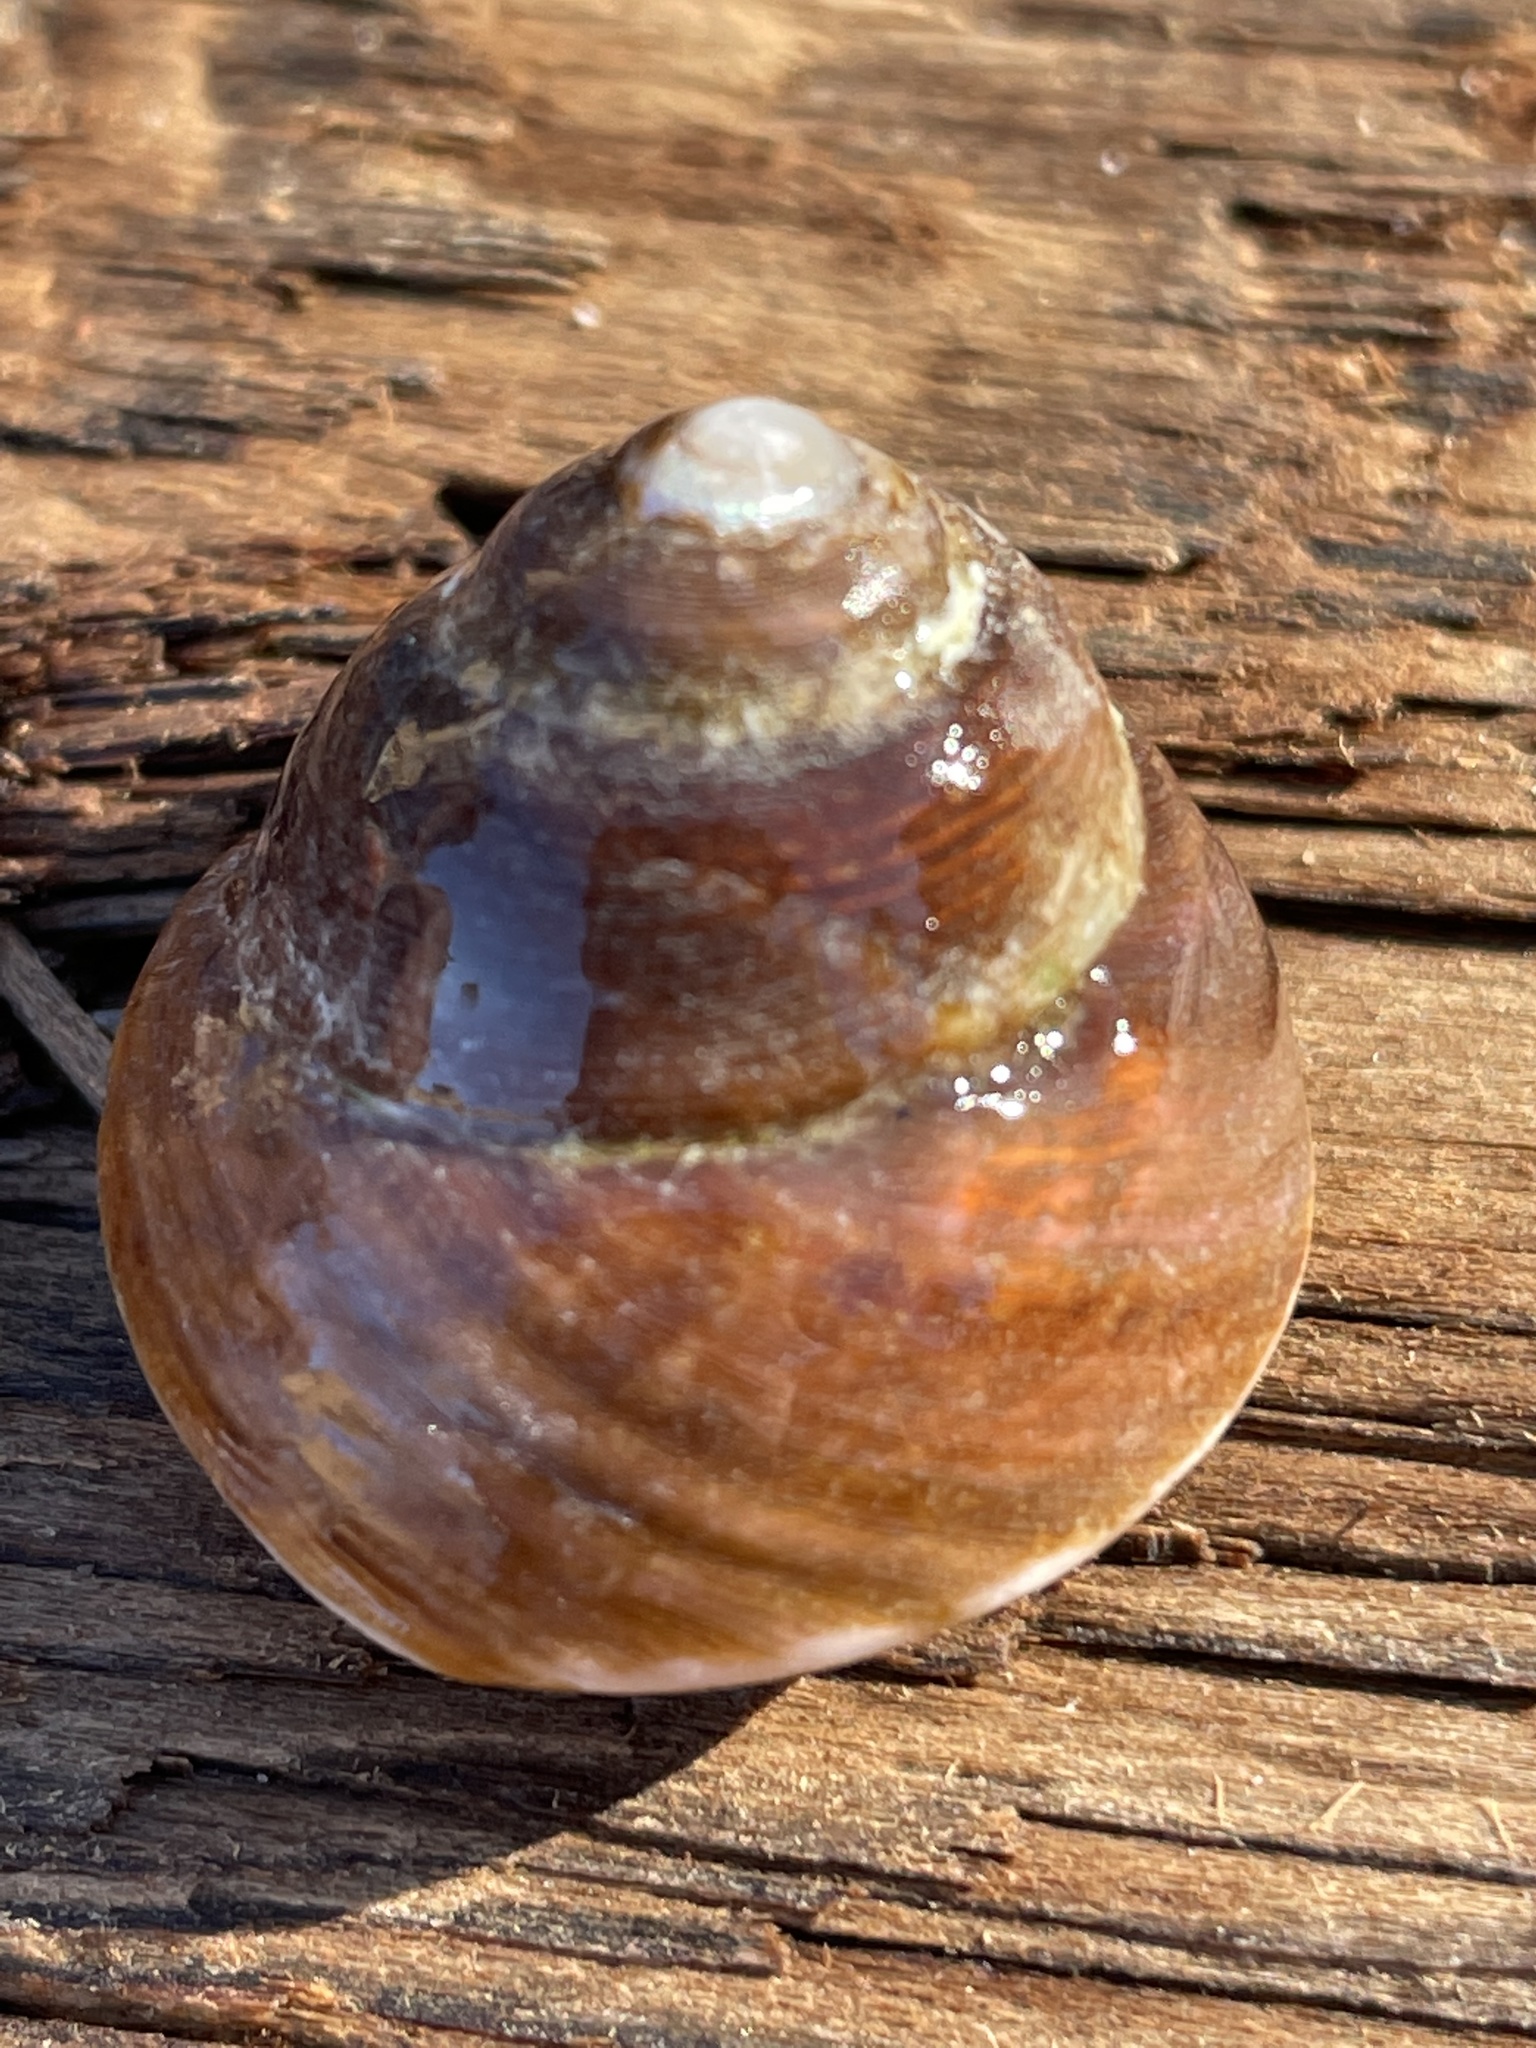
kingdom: Animalia
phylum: Mollusca
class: Gastropoda
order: Trochida
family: Tegulidae
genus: Tegula
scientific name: Tegula brunnea
